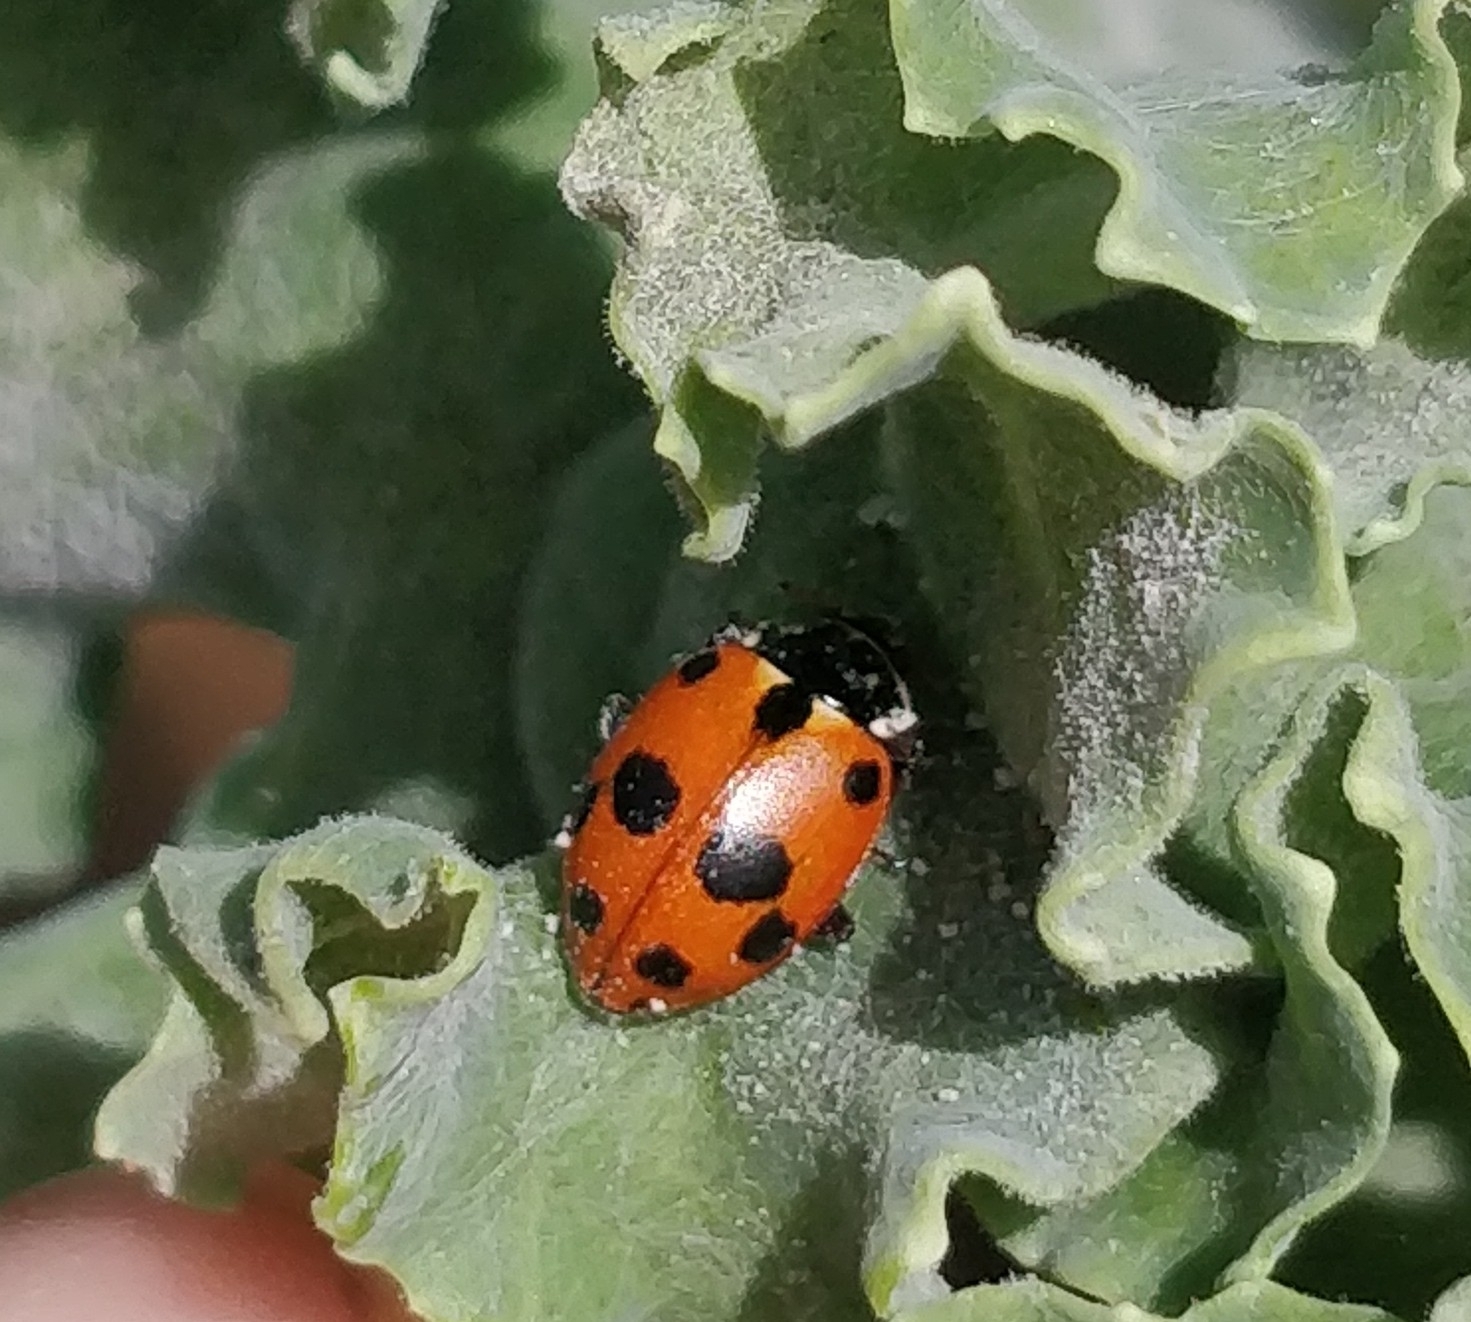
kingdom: Animalia
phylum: Arthropoda
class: Insecta
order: Coleoptera
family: Coccinellidae
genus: Hippodamia
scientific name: Hippodamia variegata
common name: Ladybird beetle
